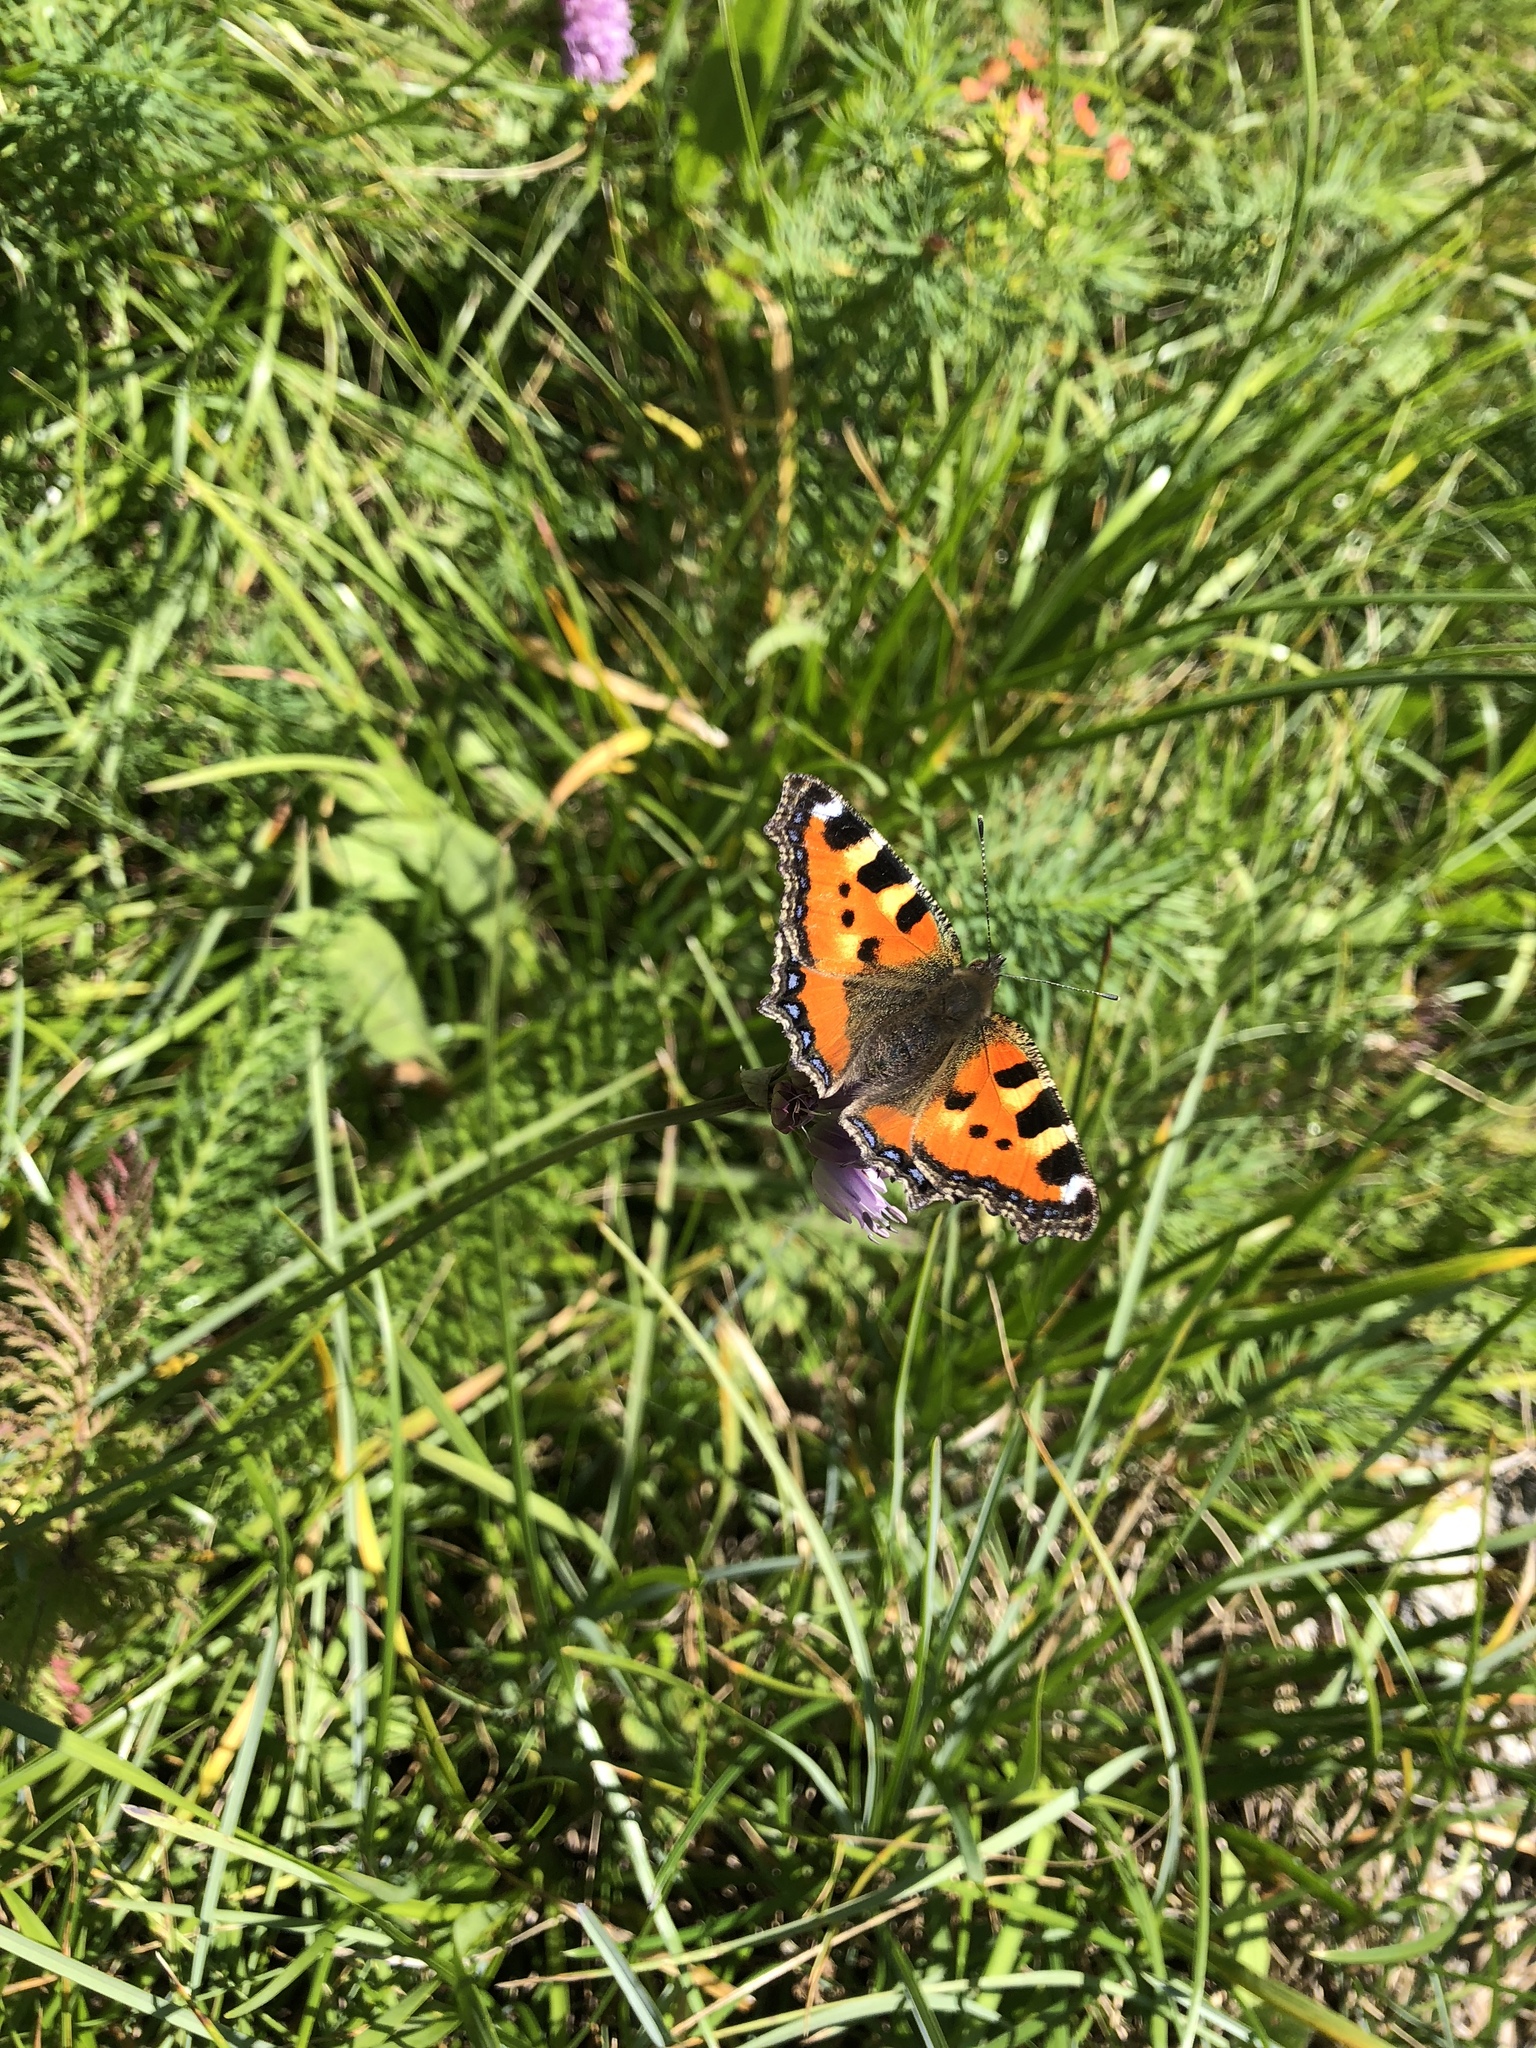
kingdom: Animalia
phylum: Arthropoda
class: Insecta
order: Lepidoptera
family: Nymphalidae
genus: Aglais
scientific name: Aglais urticae
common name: Small tortoiseshell
